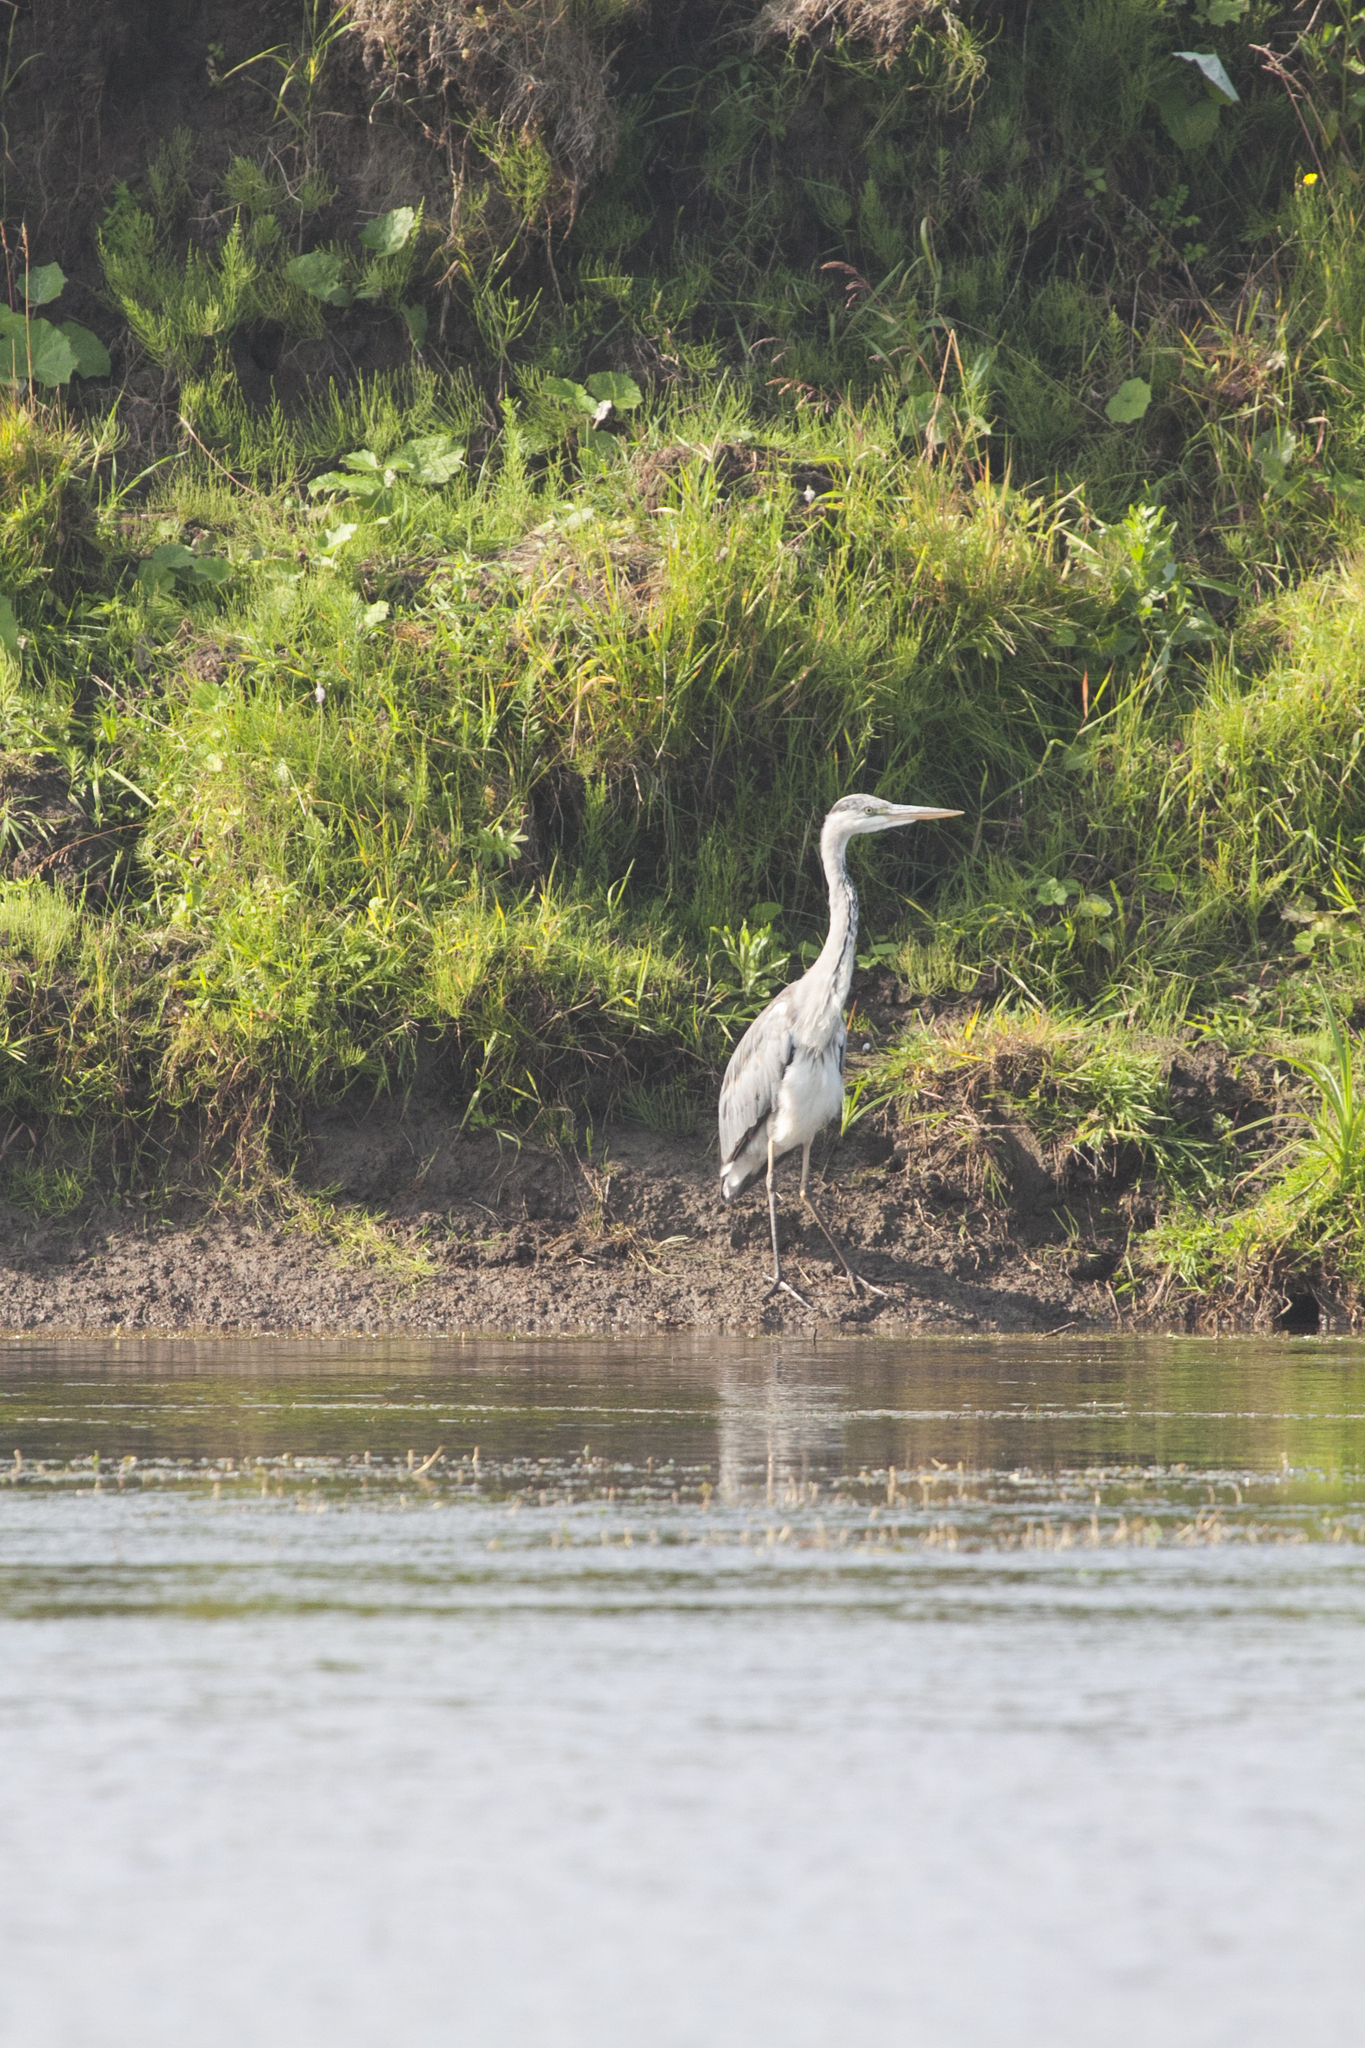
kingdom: Animalia
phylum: Chordata
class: Aves
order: Pelecaniformes
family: Ardeidae
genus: Ardea
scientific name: Ardea cinerea
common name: Grey heron
